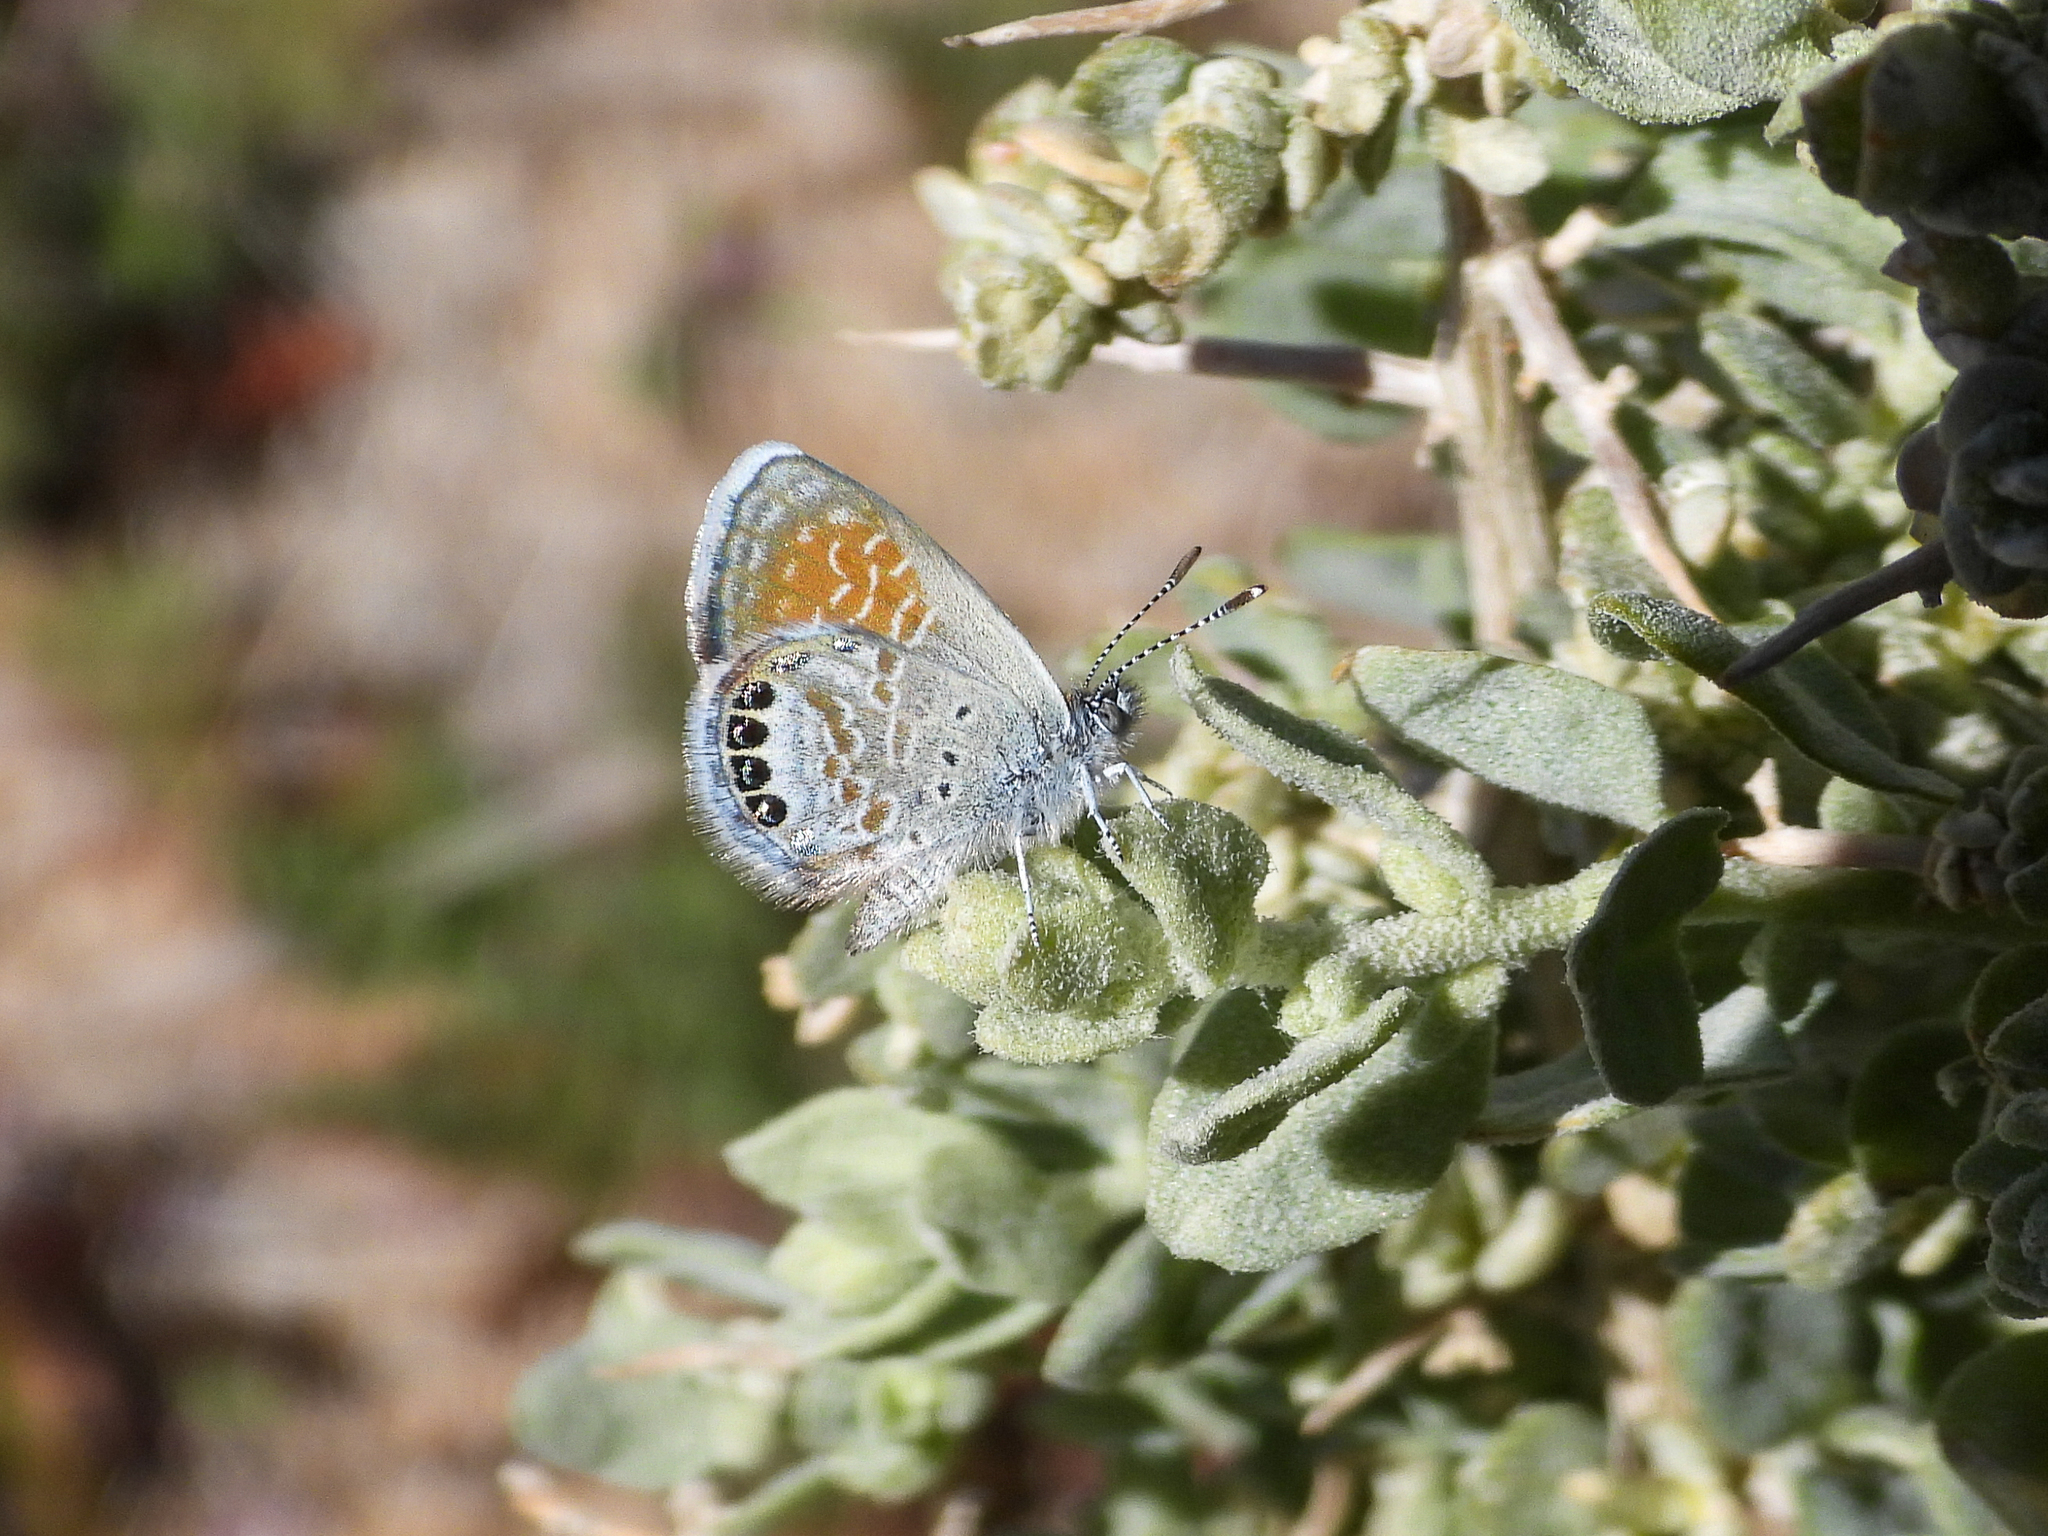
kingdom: Animalia
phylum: Arthropoda
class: Insecta
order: Lepidoptera
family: Lycaenidae
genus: Brephidium
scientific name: Brephidium exilis
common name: Pygmy blue
